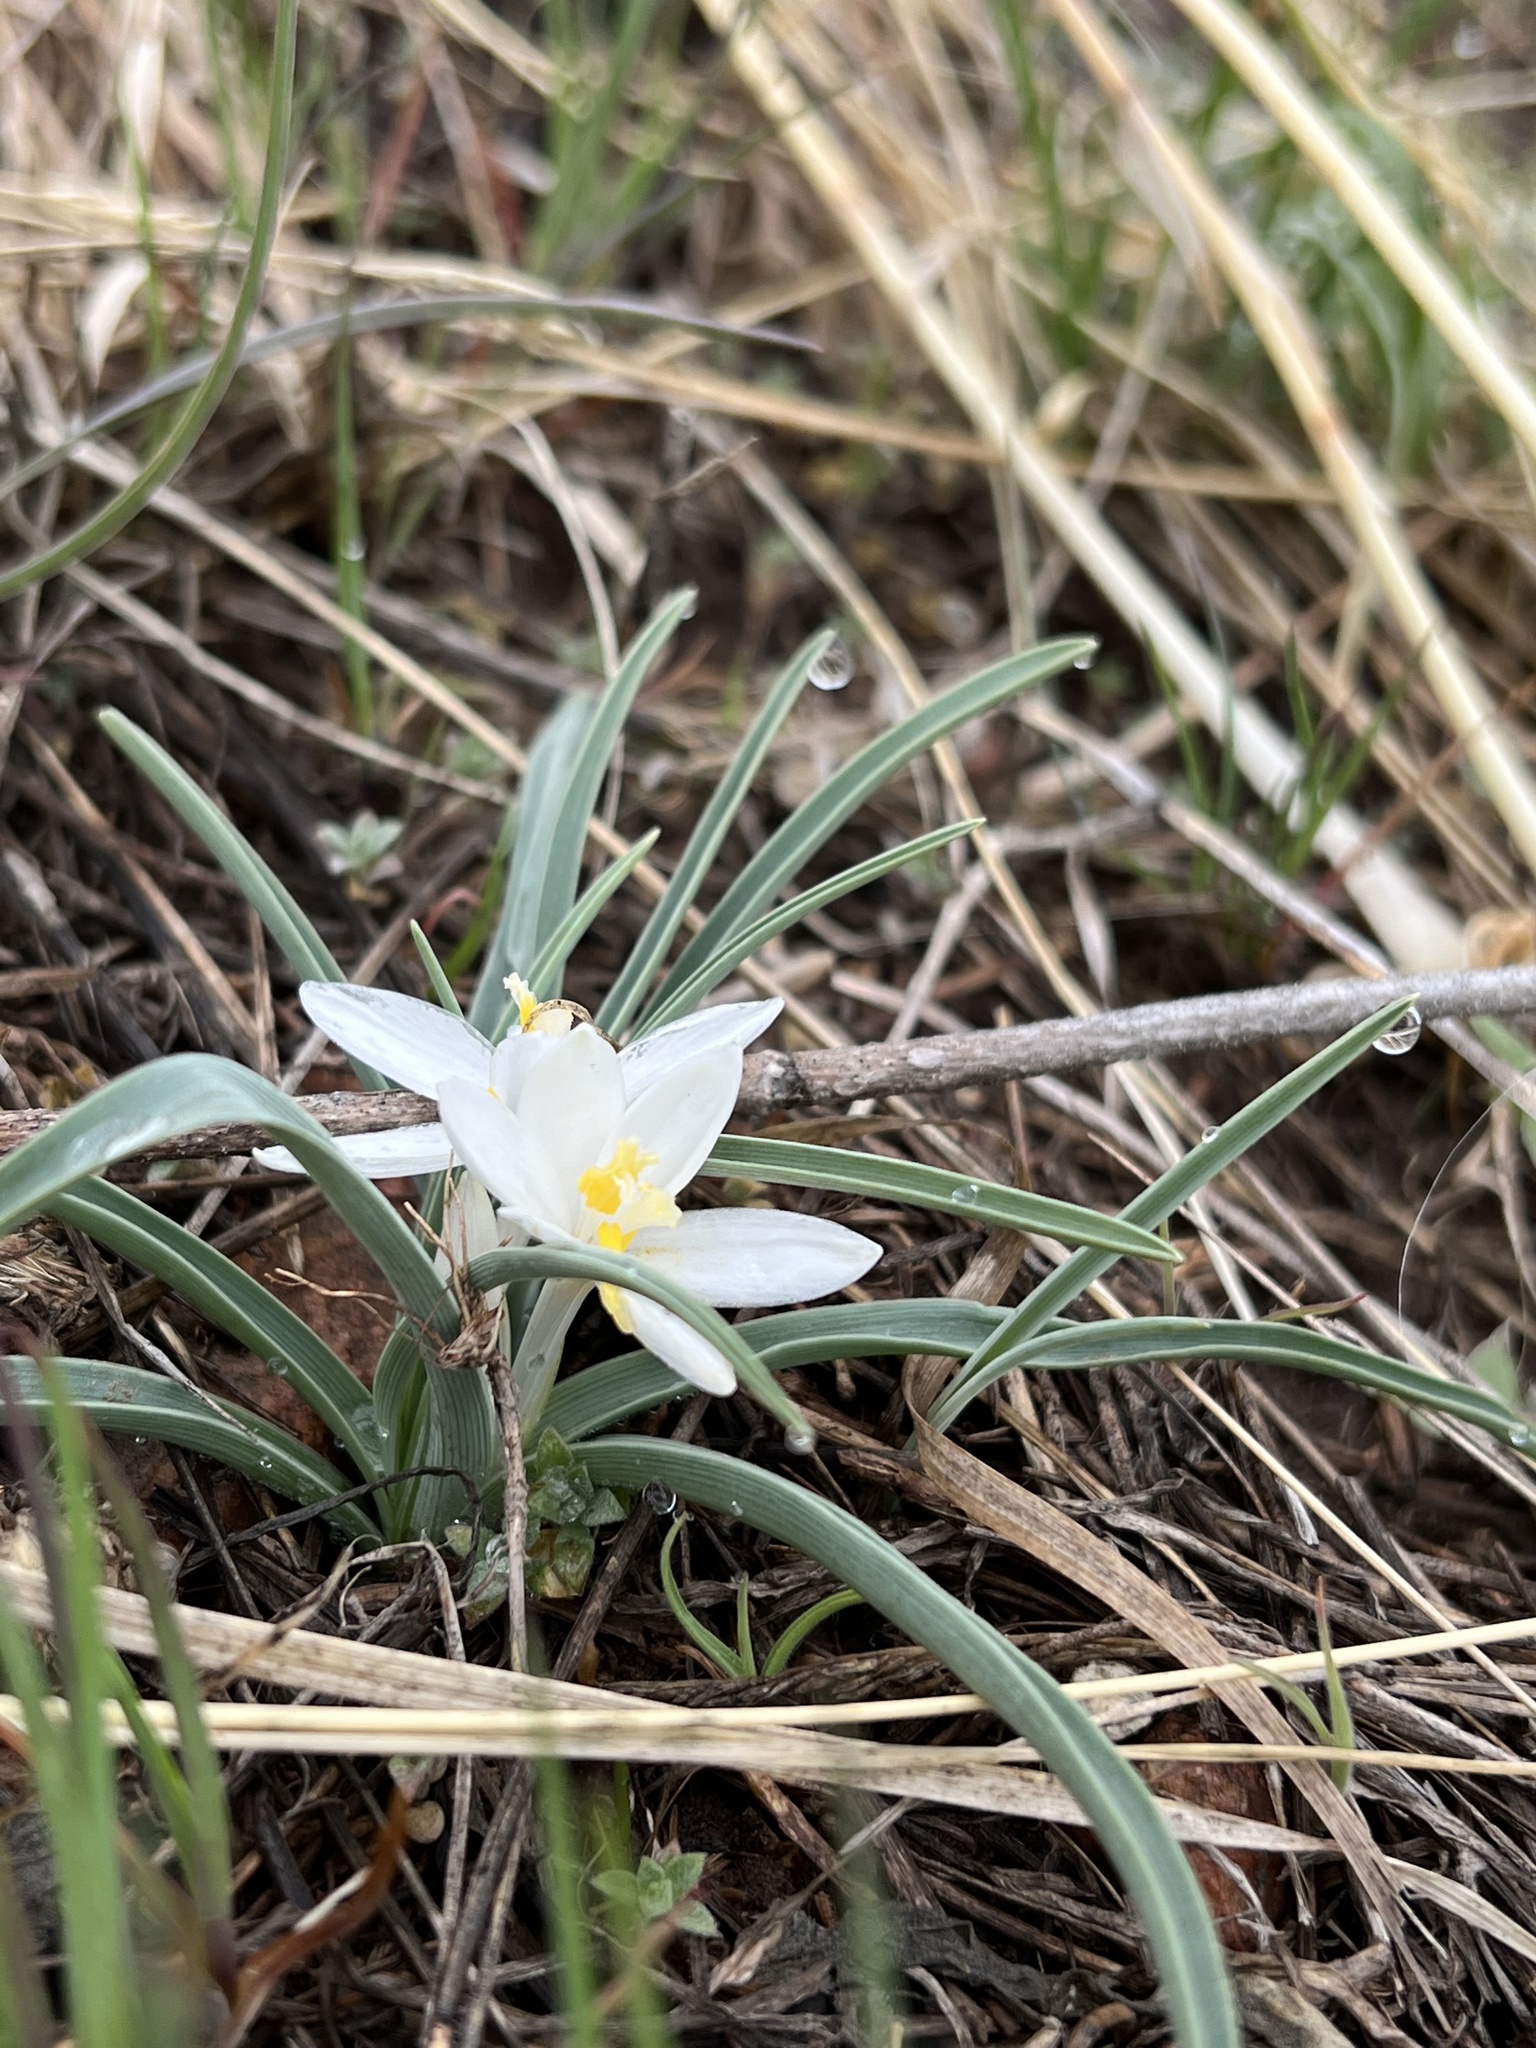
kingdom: Plantae
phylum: Tracheophyta
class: Liliopsida
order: Asparagales
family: Asparagaceae
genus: Leucocrinum
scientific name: Leucocrinum montanum
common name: Mountain-lily
